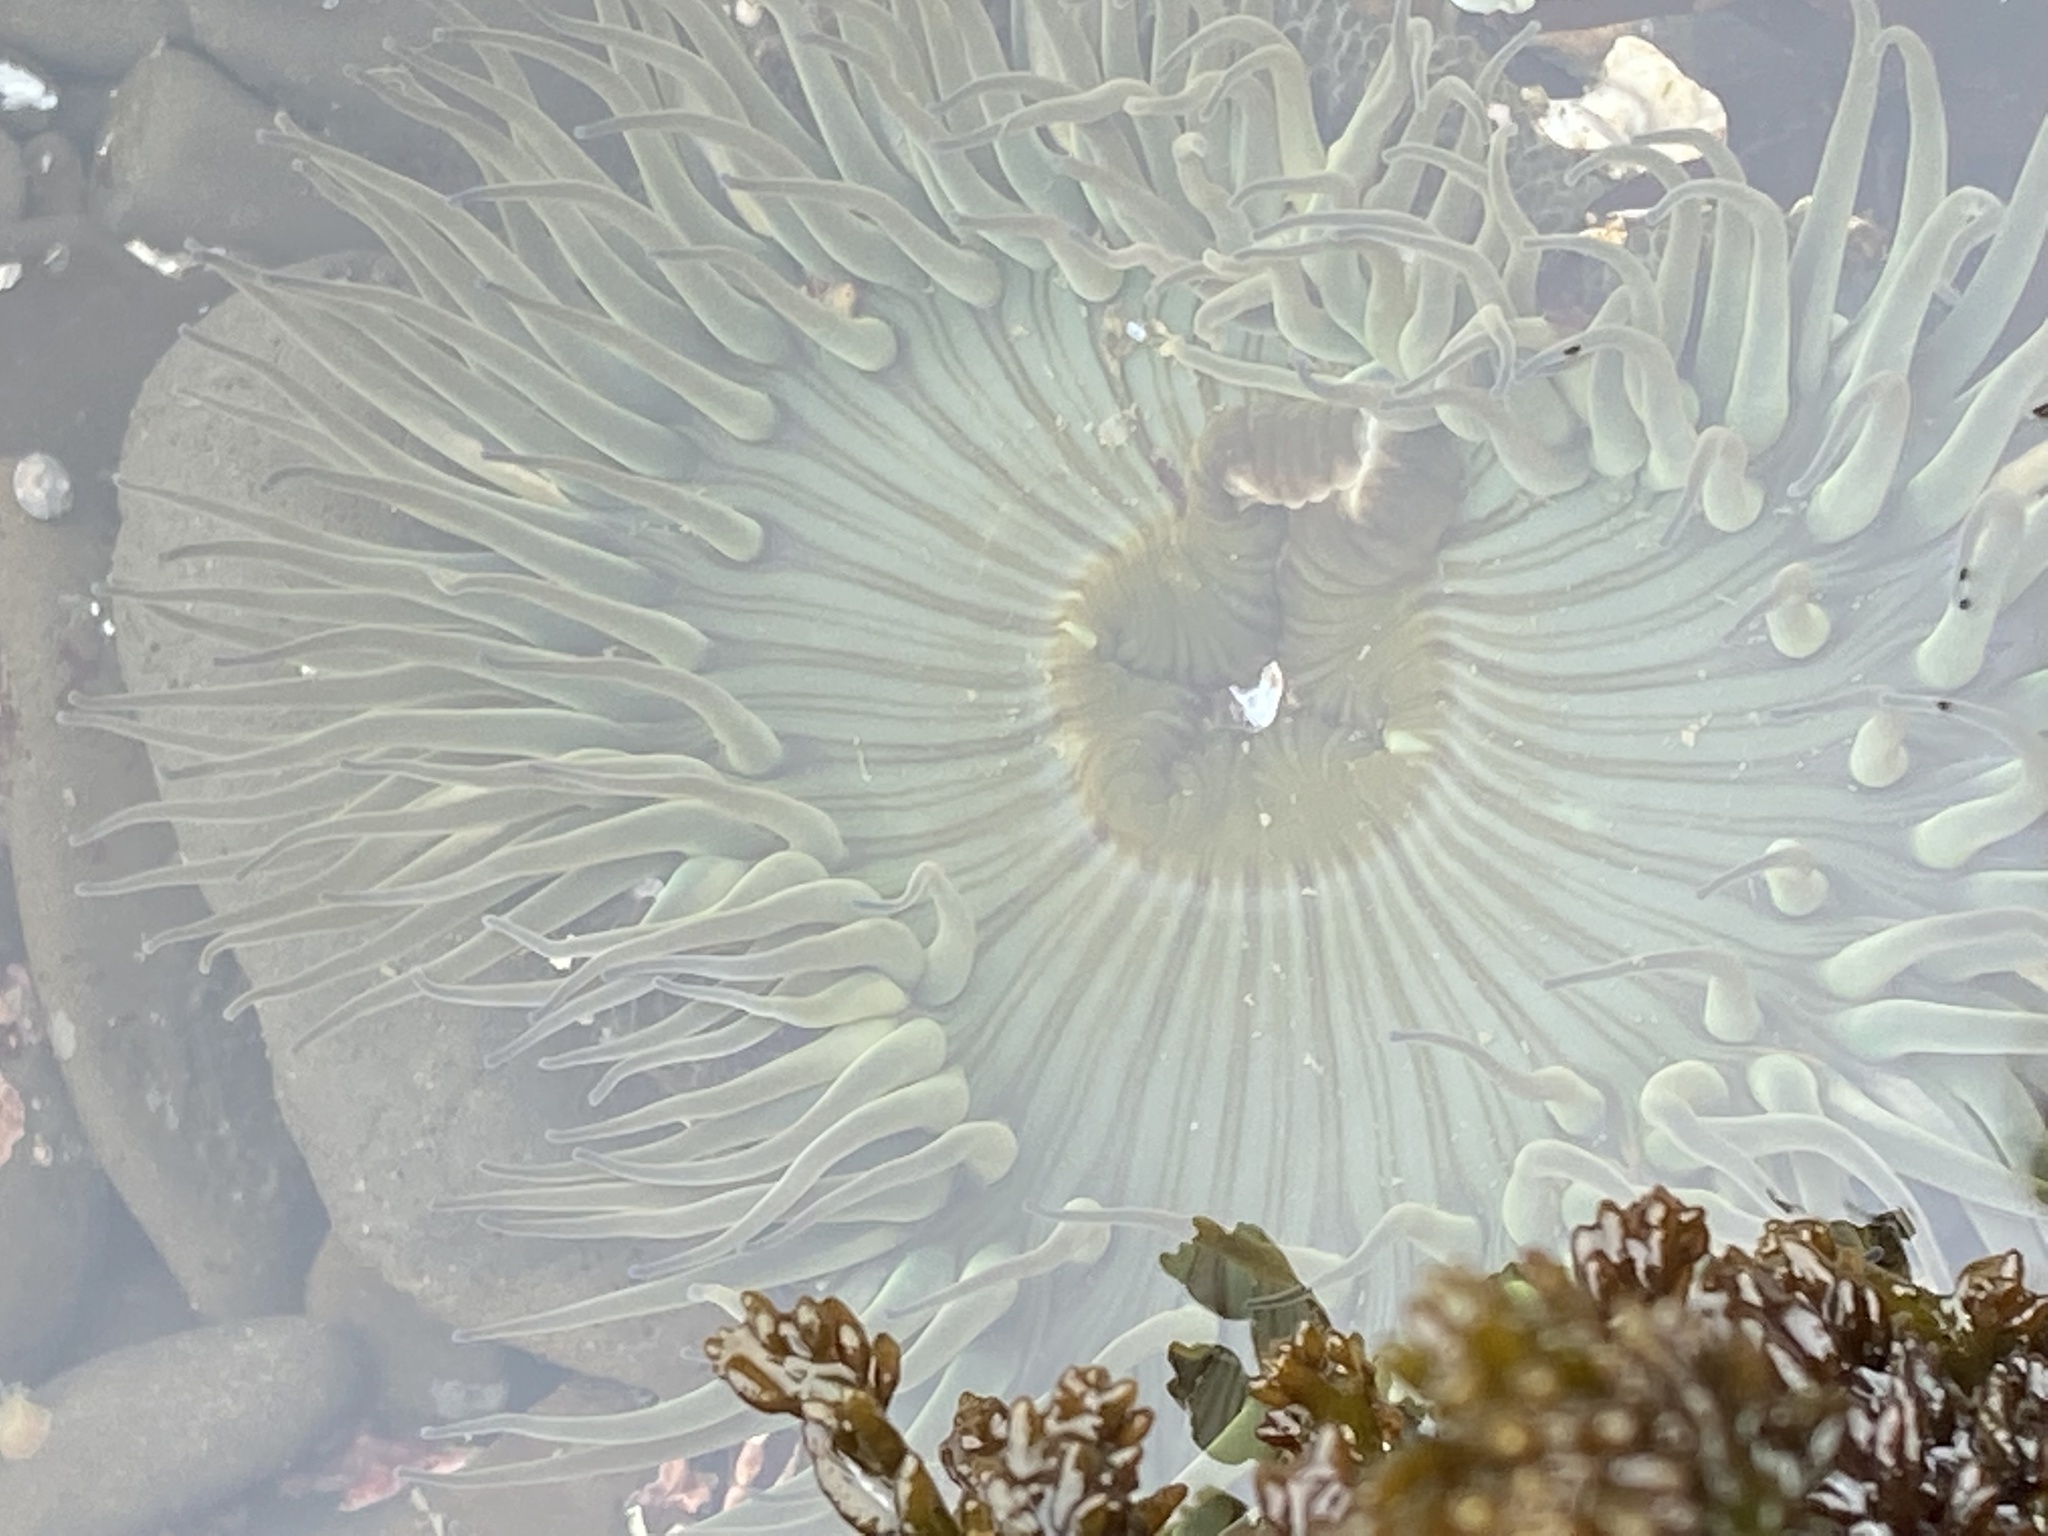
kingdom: Animalia
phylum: Cnidaria
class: Anthozoa
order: Actiniaria
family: Actiniidae
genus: Anthopleura
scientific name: Anthopleura sola
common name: Sun anemone
